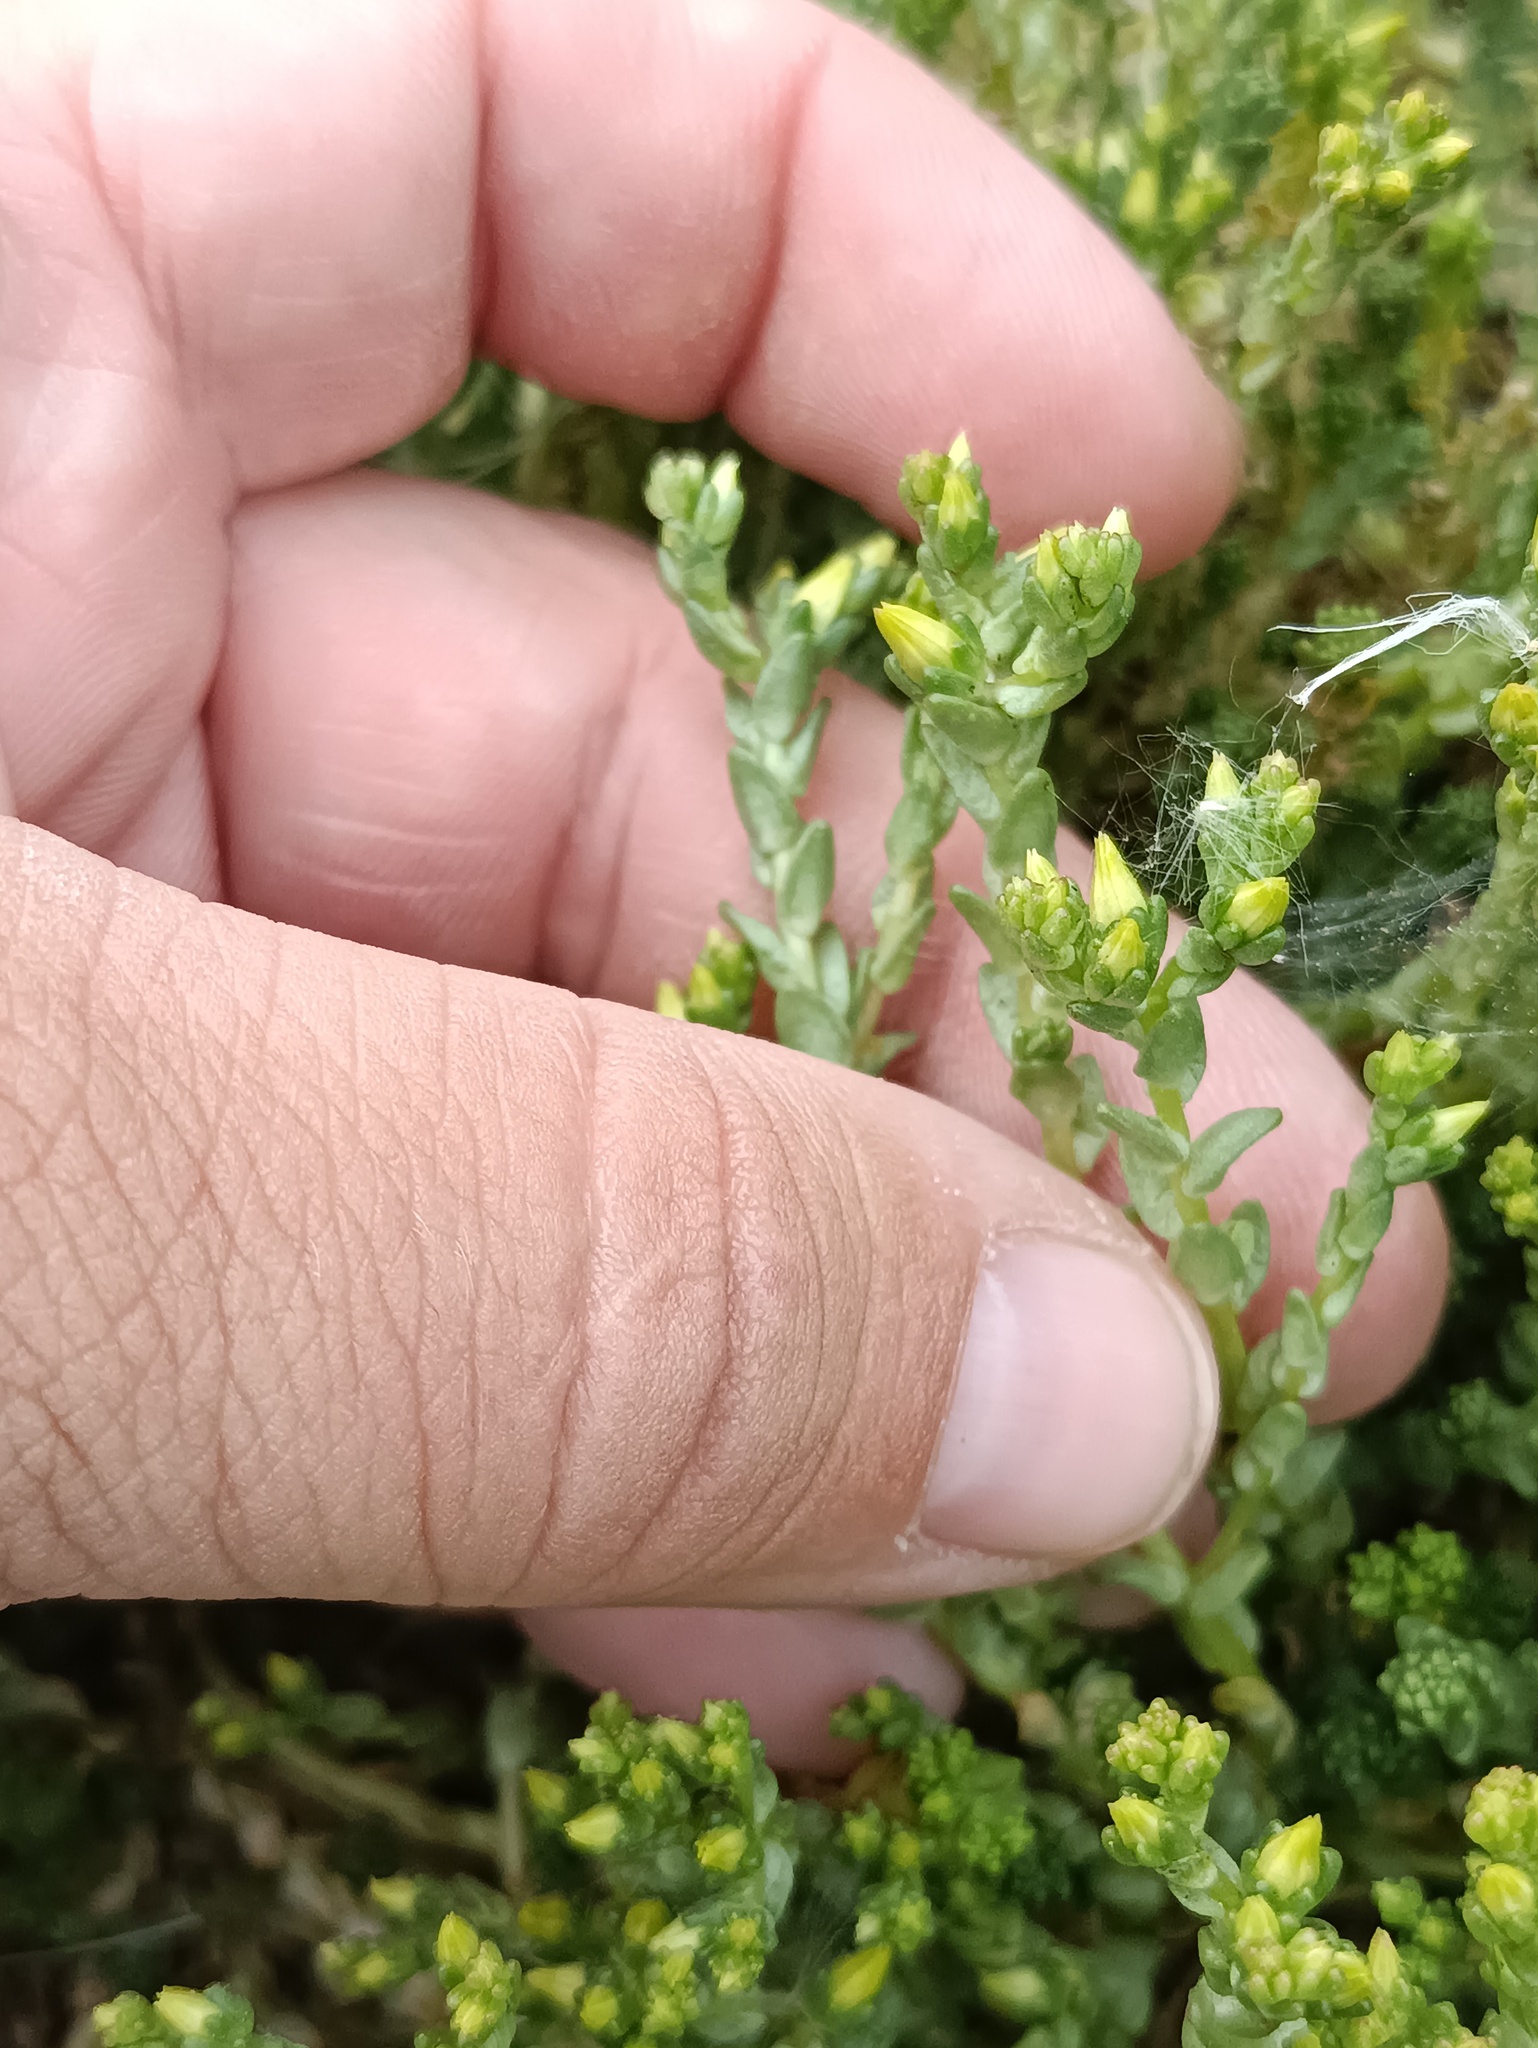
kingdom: Plantae
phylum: Tracheophyta
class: Magnoliopsida
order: Saxifragales
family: Crassulaceae
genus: Sedum
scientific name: Sedum acre
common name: Biting stonecrop
